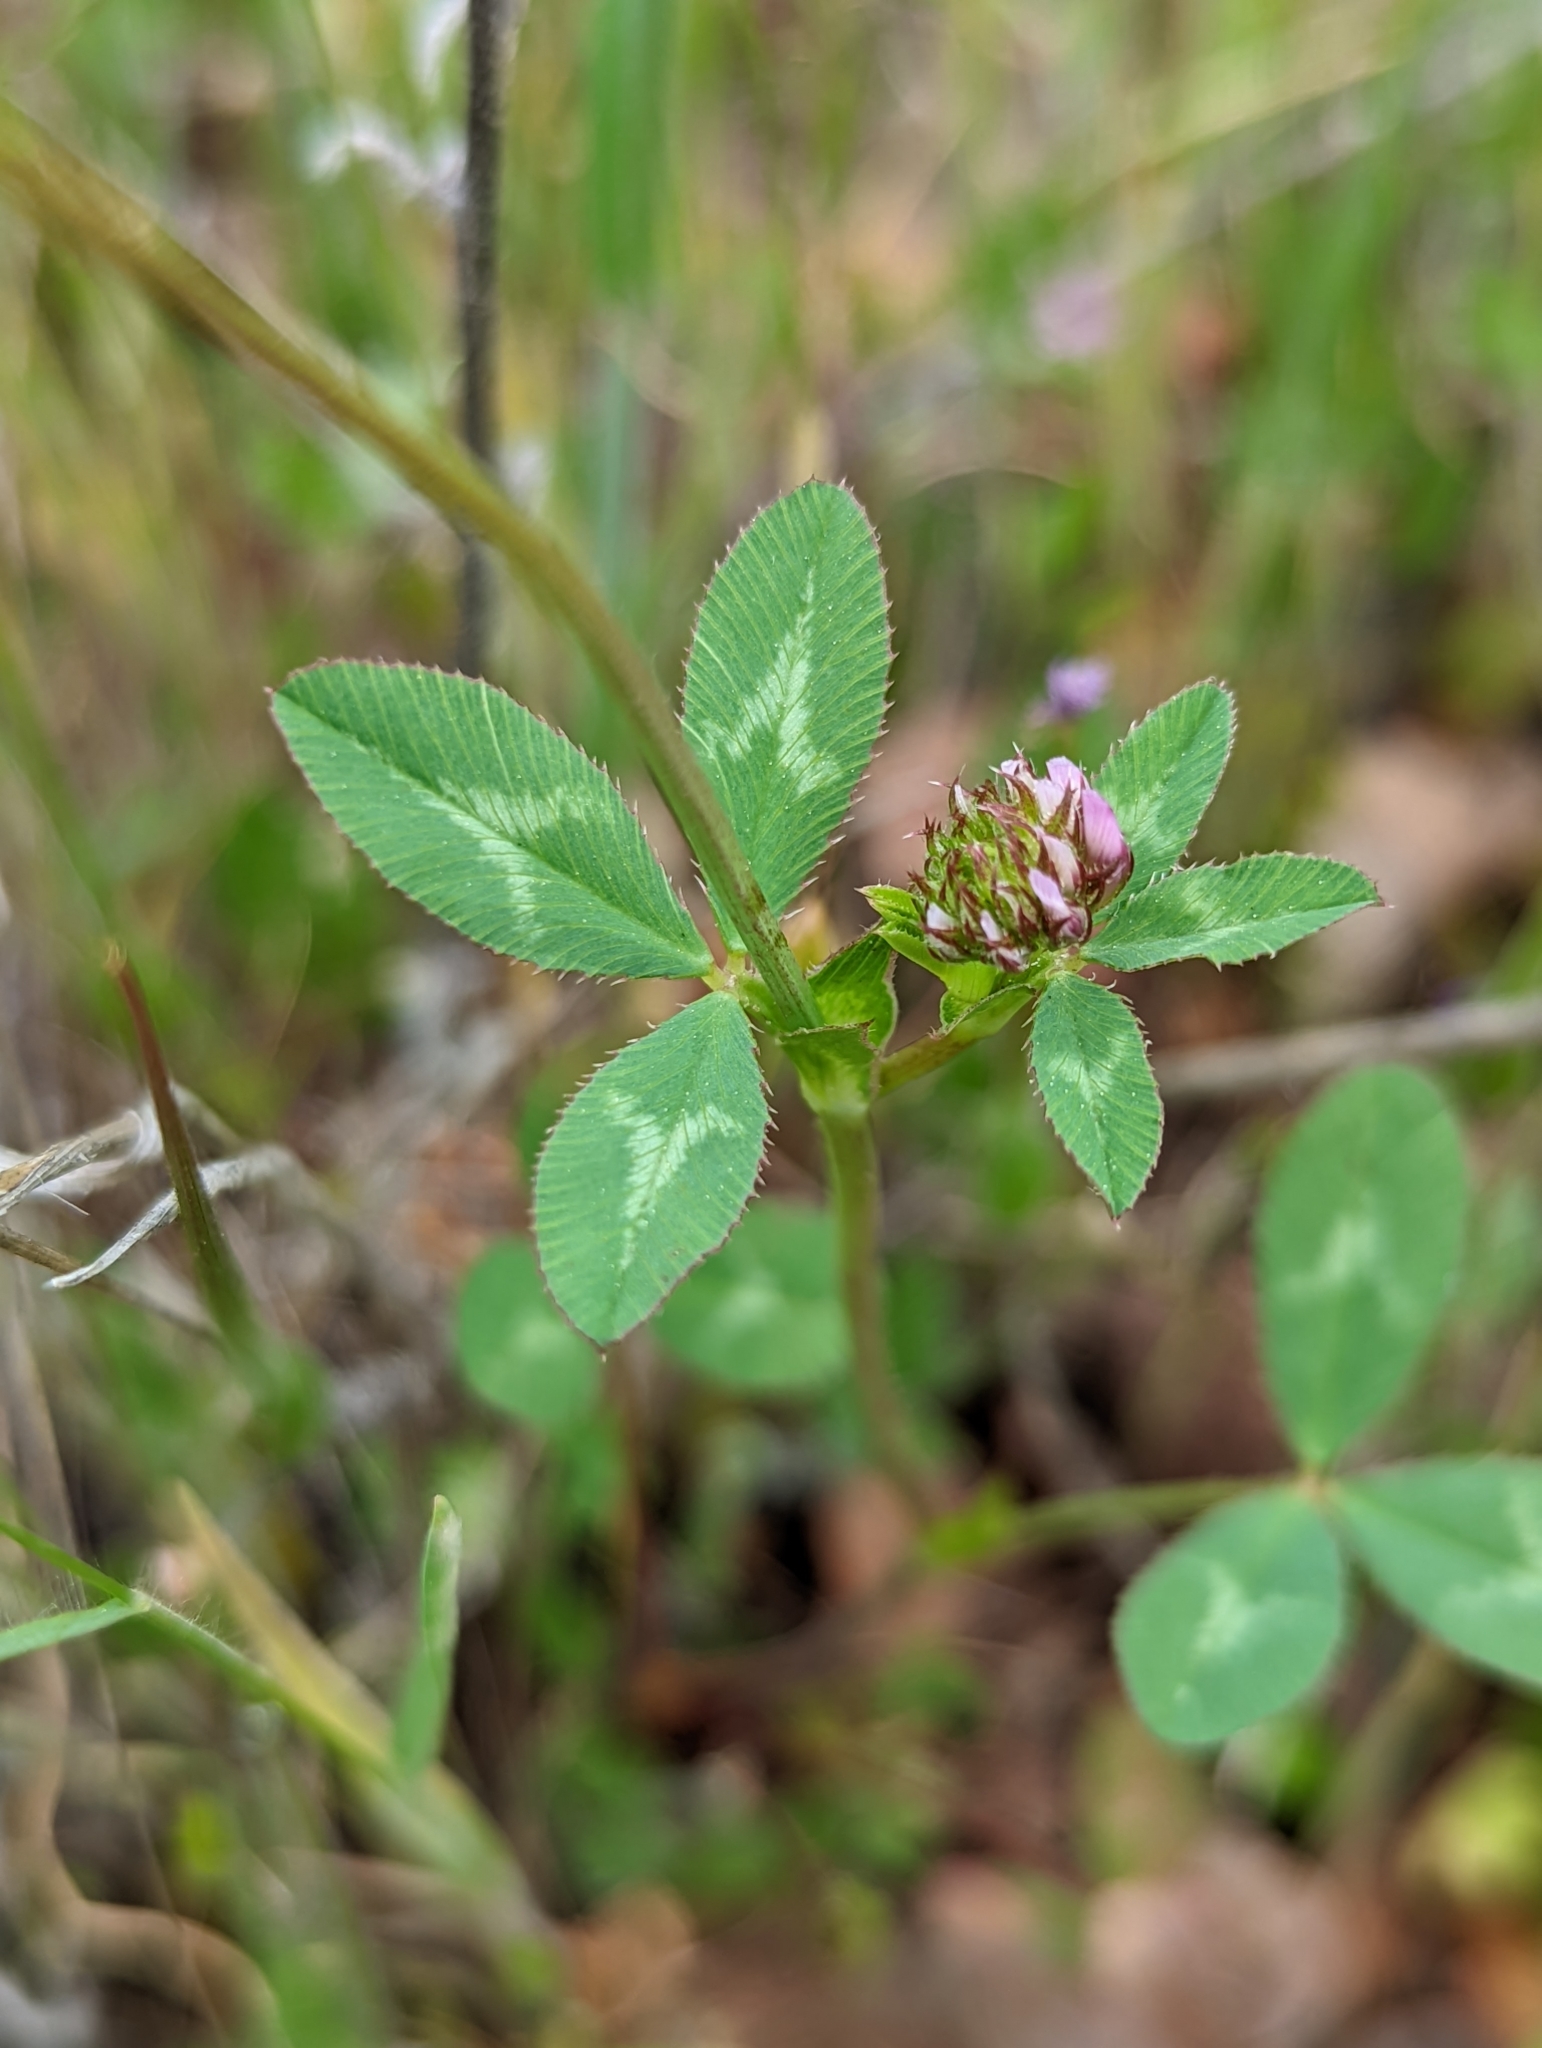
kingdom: Plantae
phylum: Tracheophyta
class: Magnoliopsida
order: Fabales
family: Fabaceae
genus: Trifolium
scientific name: Trifolium ciliolatum
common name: Foothill clover
